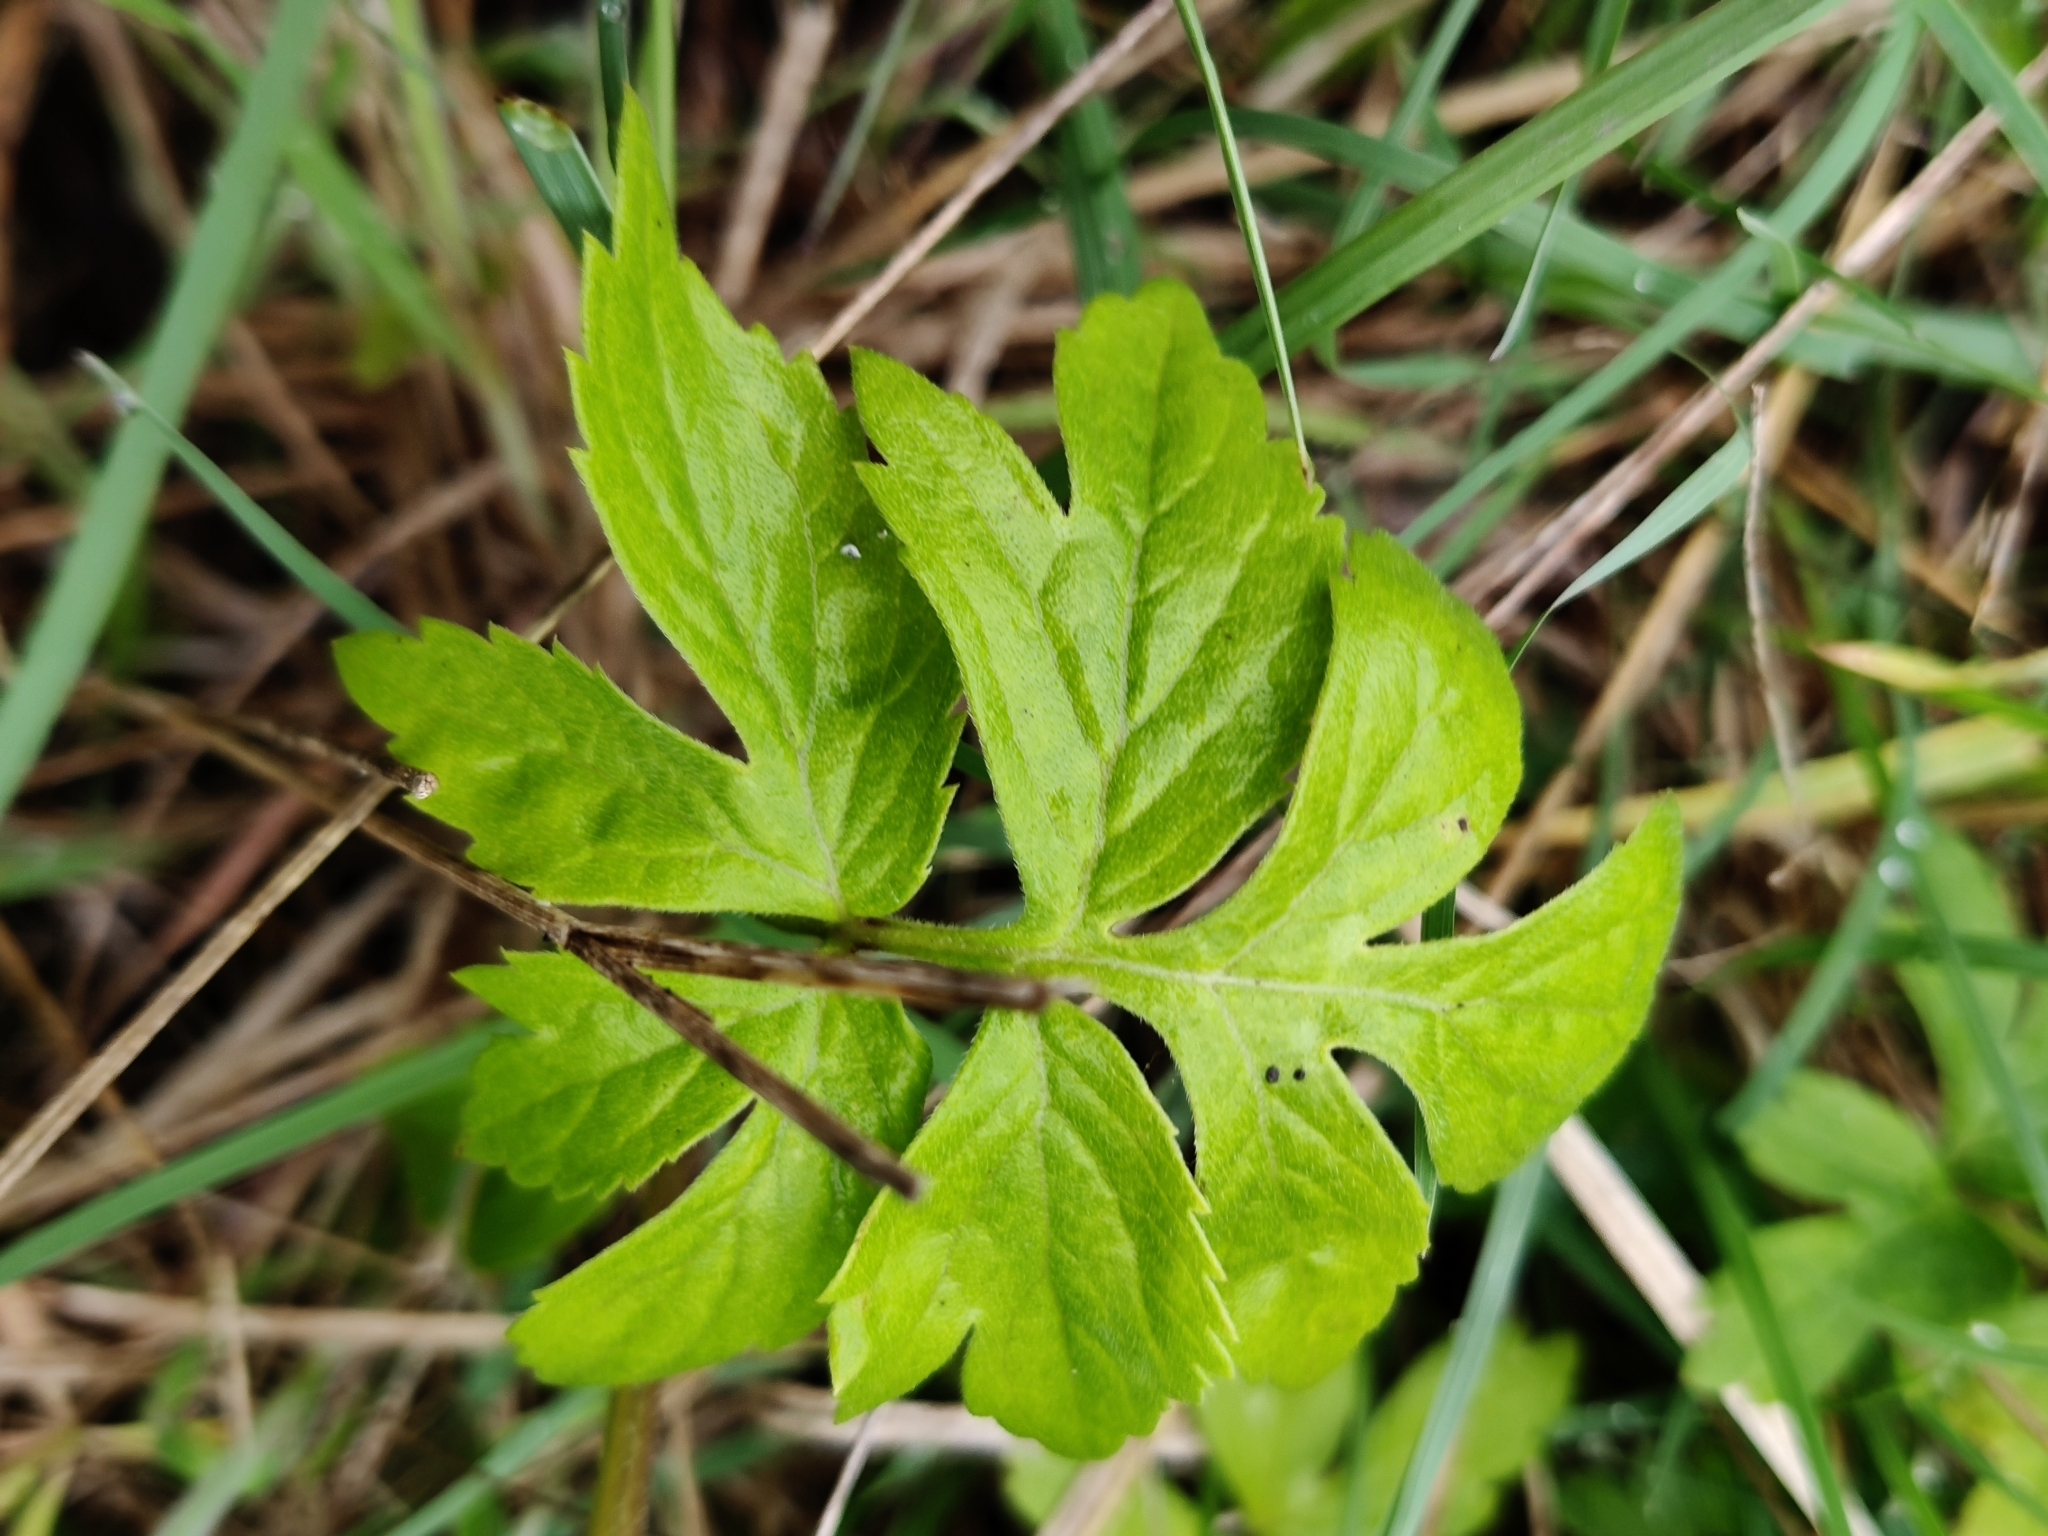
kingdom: Plantae
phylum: Tracheophyta
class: Magnoliopsida
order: Boraginales
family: Hydrophyllaceae
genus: Hydrophyllum
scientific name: Hydrophyllum virginianum
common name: Virginia waterleaf
